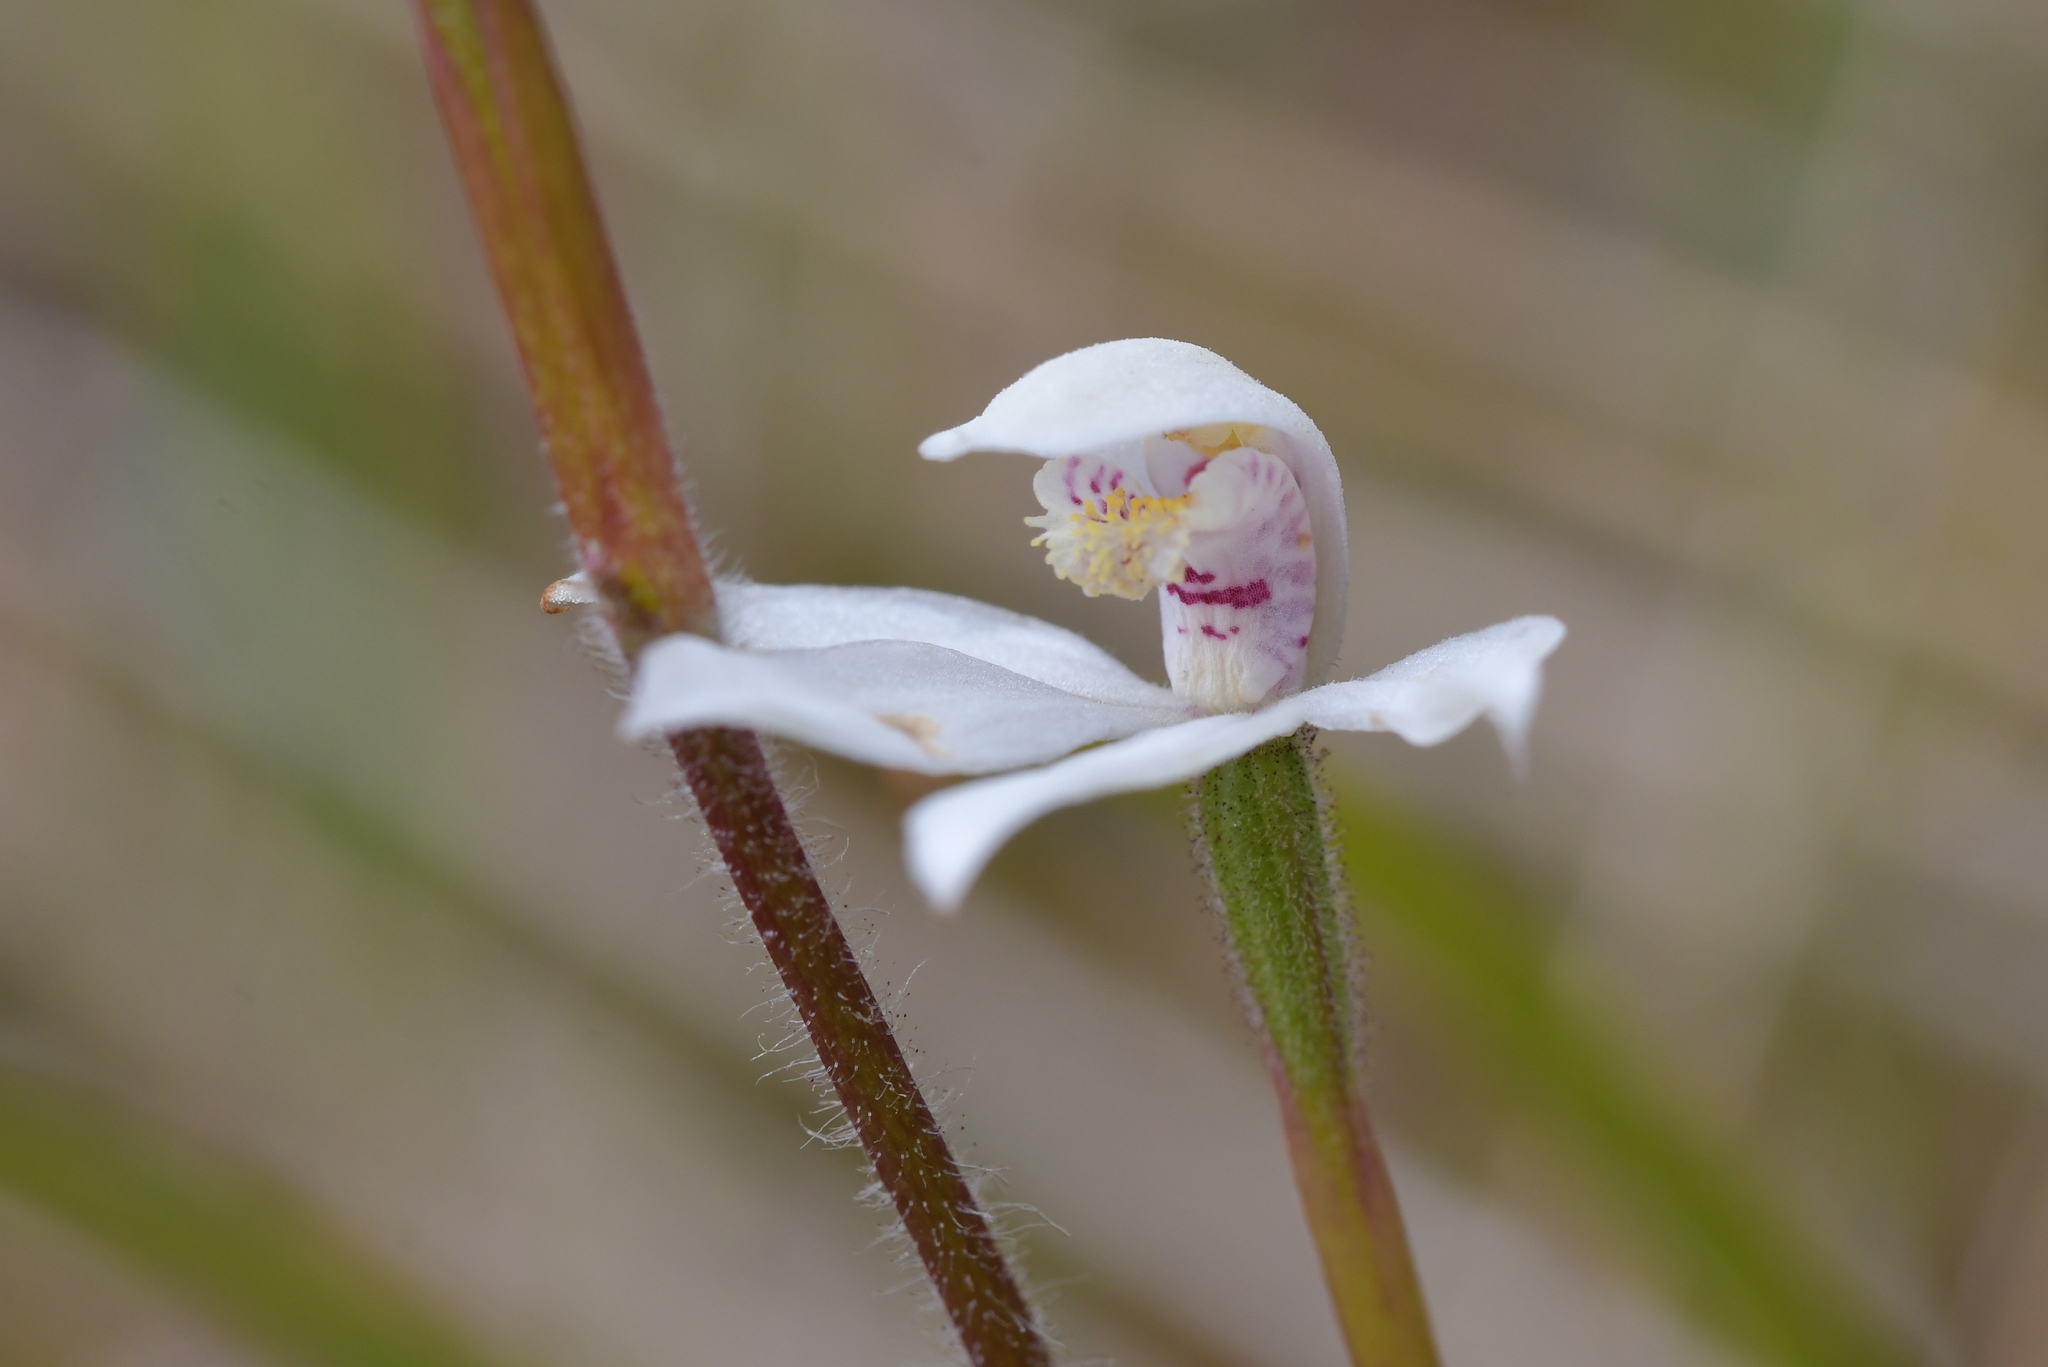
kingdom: Plantae
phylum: Tracheophyta
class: Liliopsida
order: Asparagales
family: Orchidaceae
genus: Caladenia
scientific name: Caladenia lyallii
